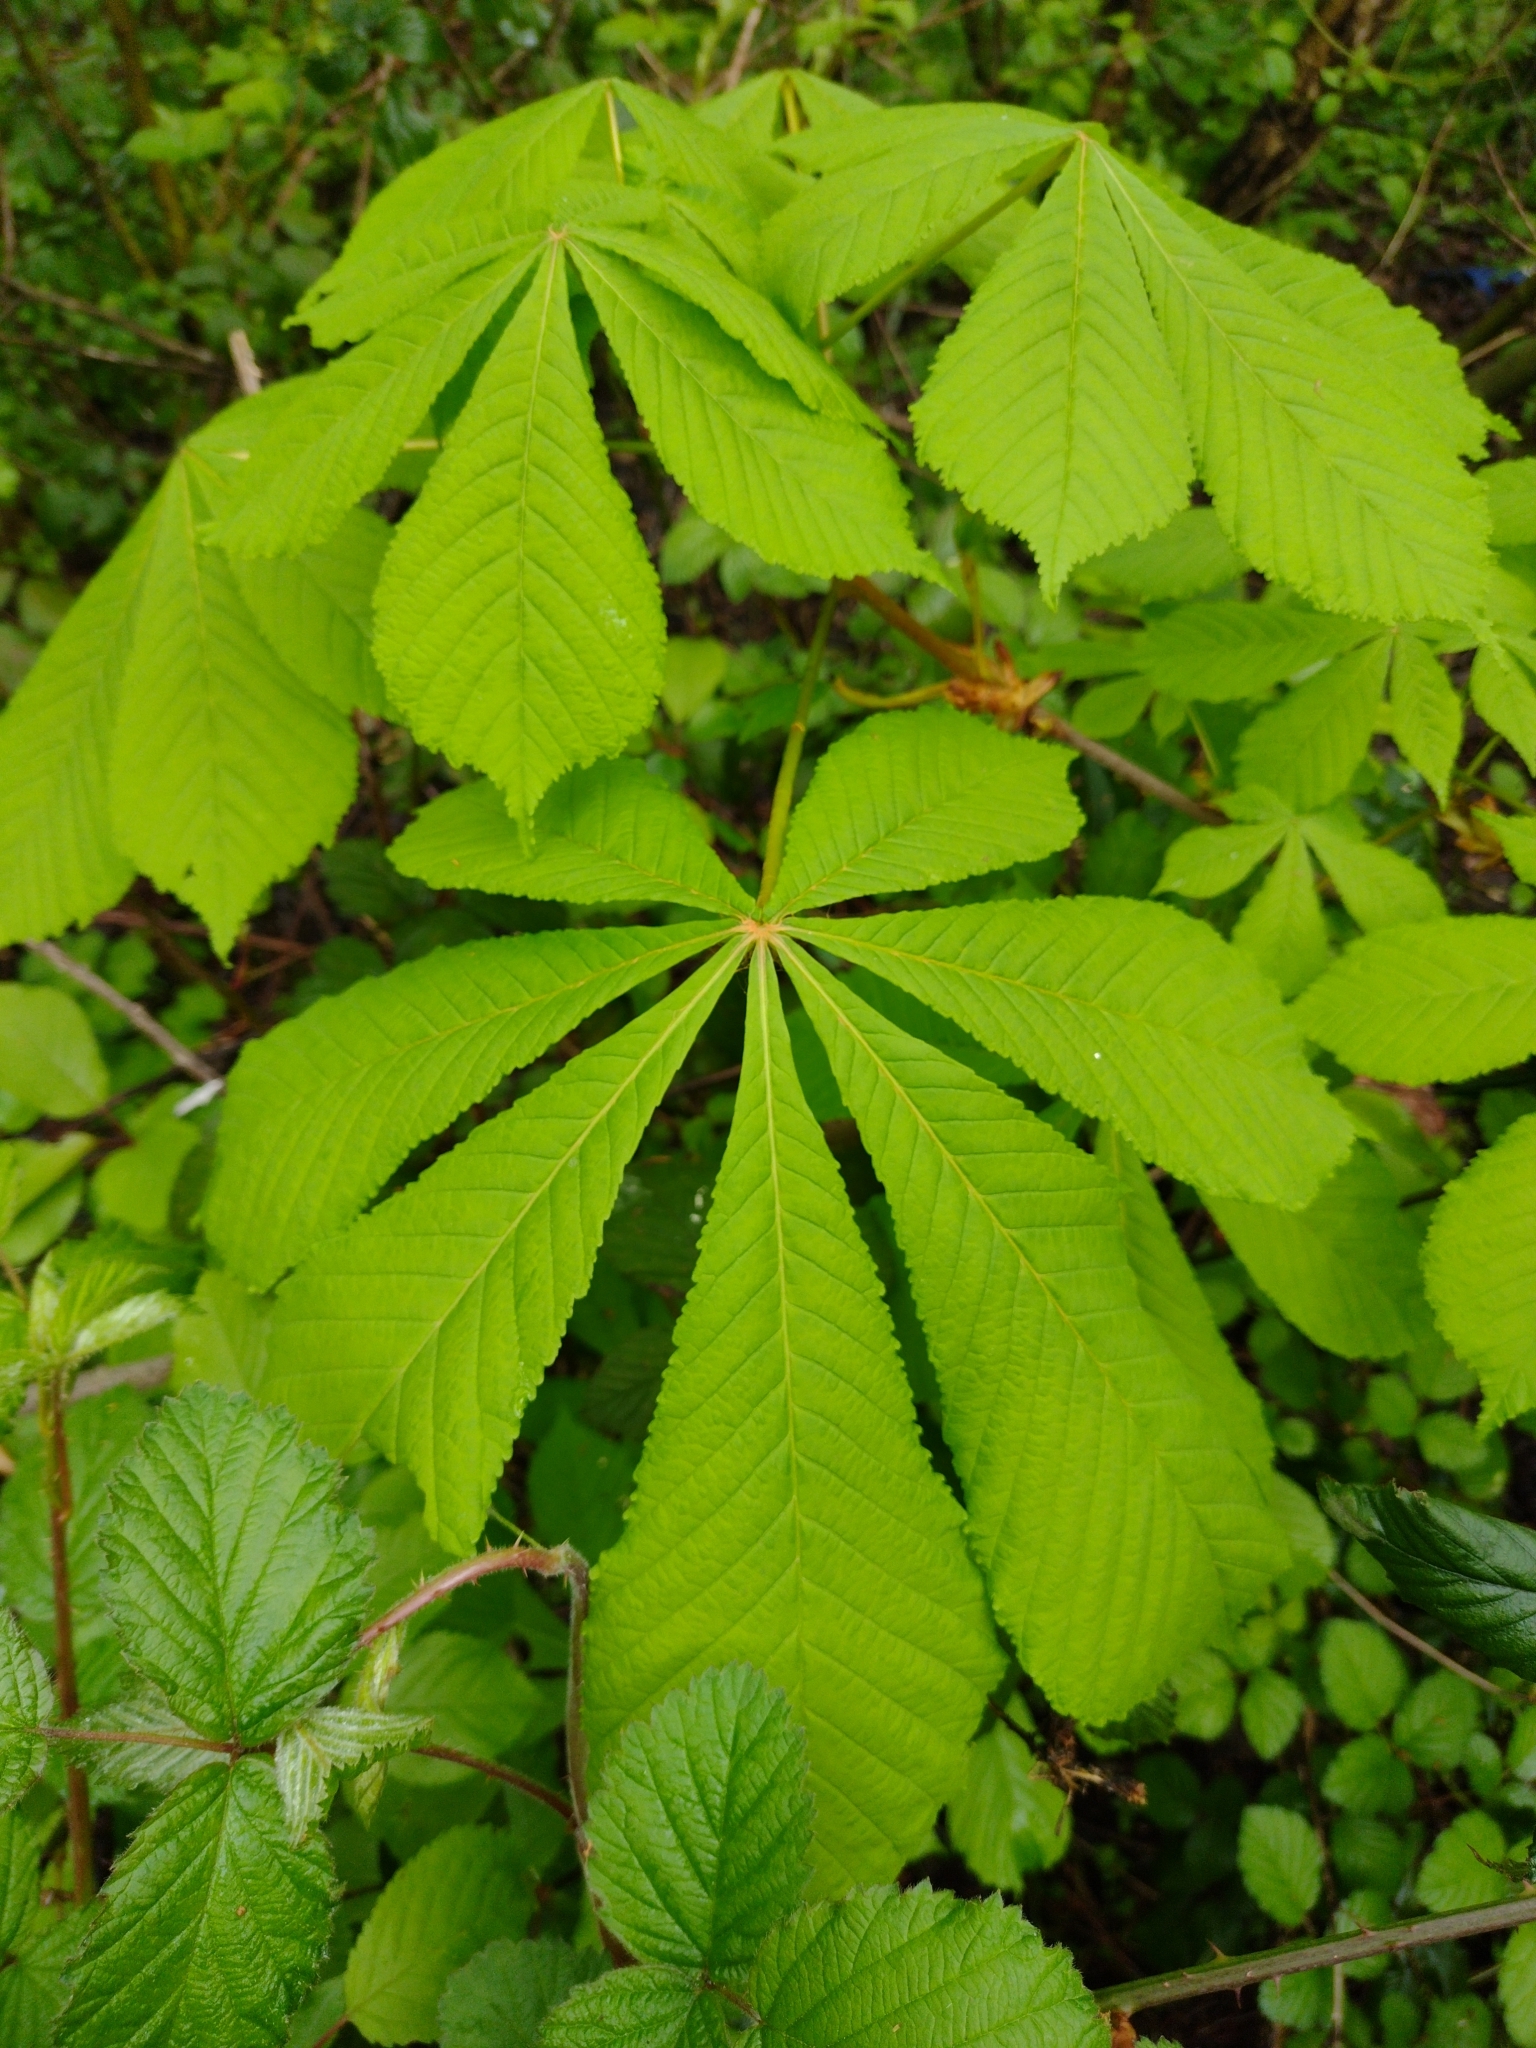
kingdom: Plantae
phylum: Tracheophyta
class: Magnoliopsida
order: Sapindales
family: Sapindaceae
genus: Aesculus
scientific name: Aesculus hippocastanum
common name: Horse-chestnut
